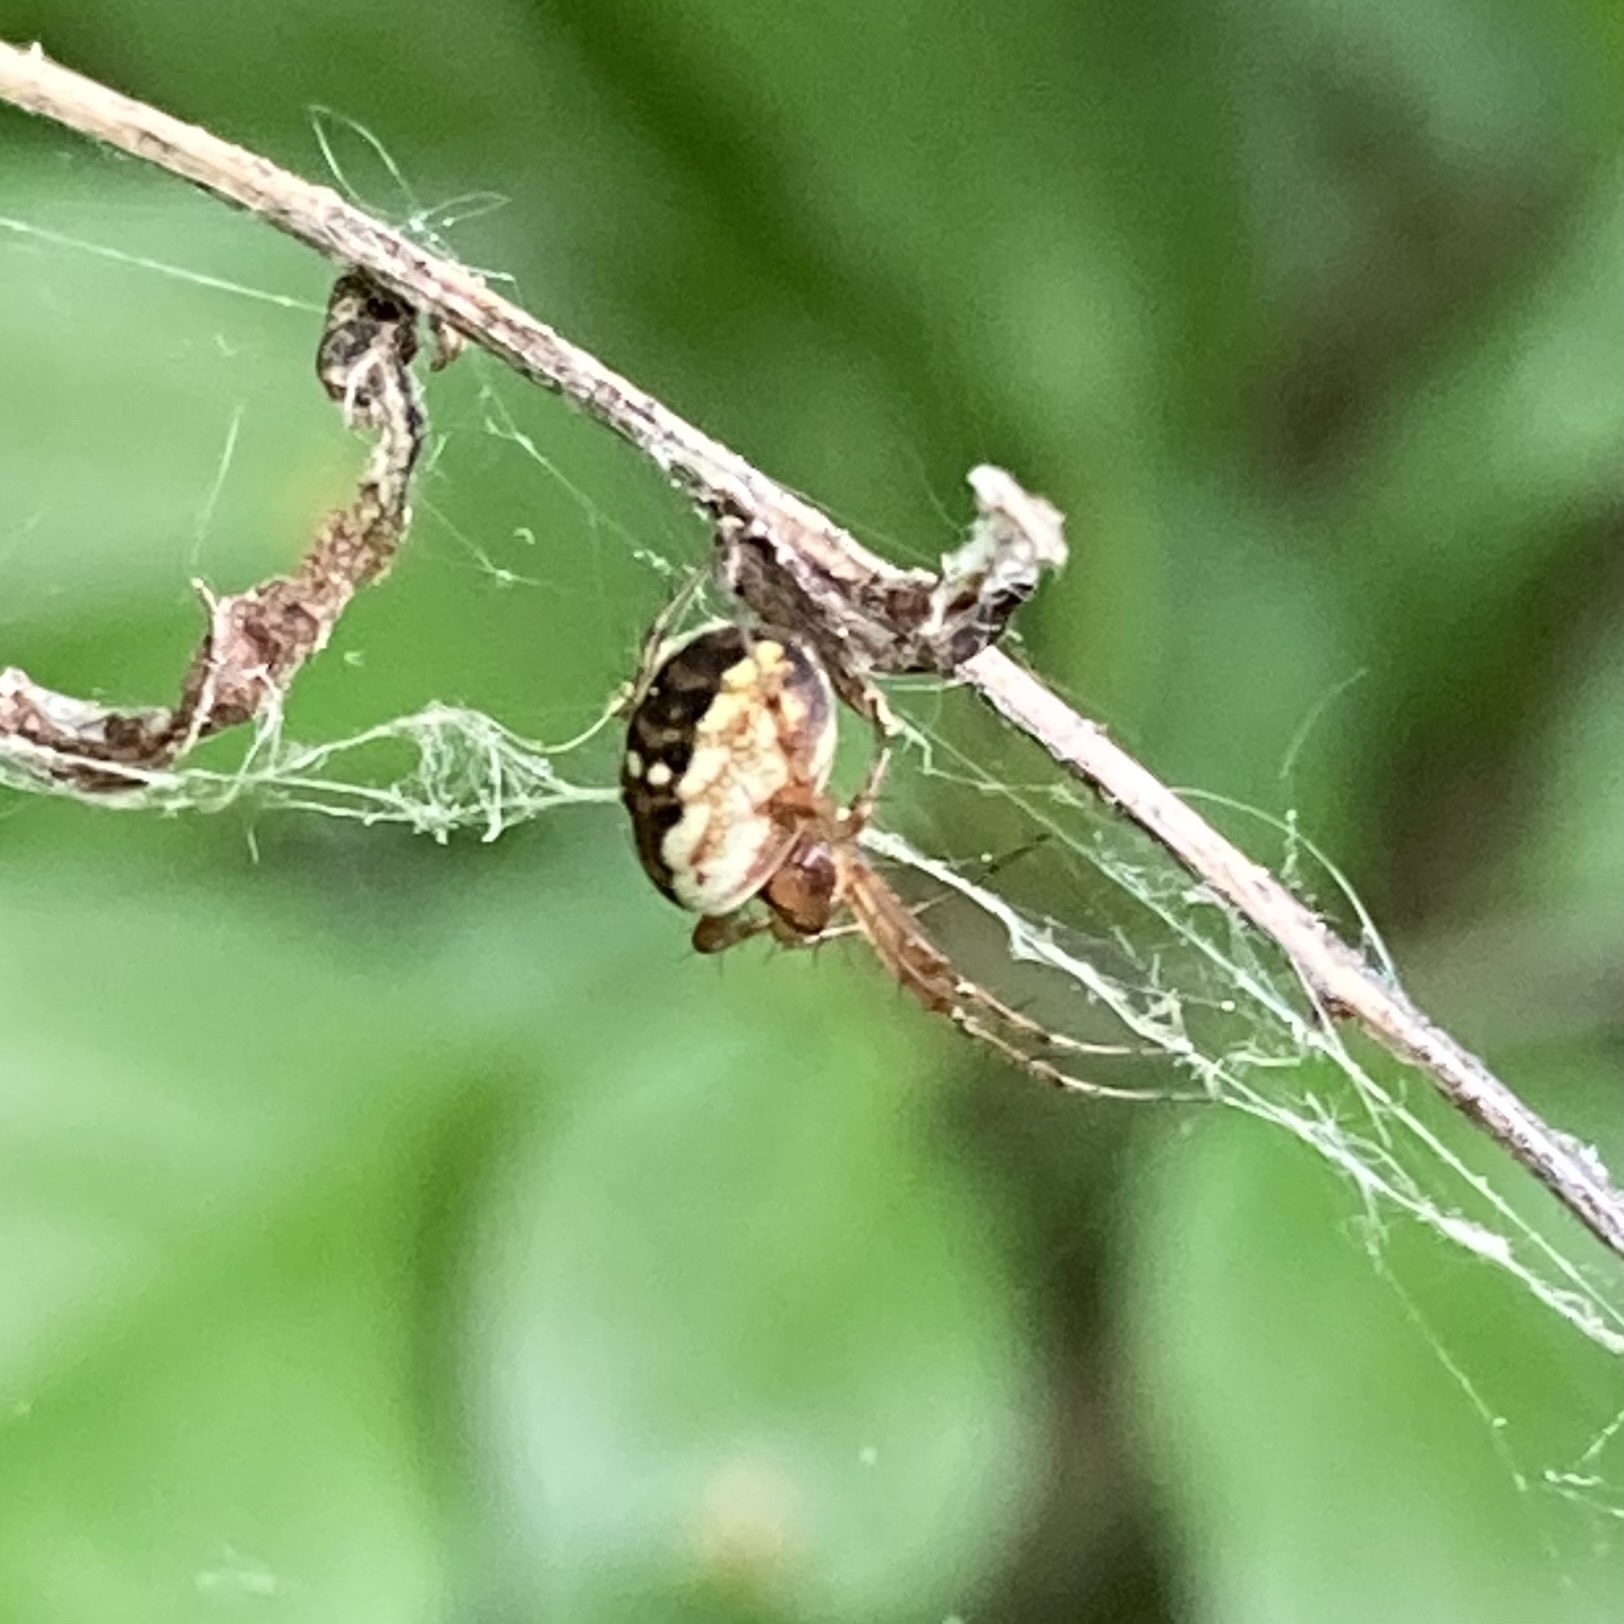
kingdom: Animalia
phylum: Arthropoda
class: Arachnida
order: Araneae
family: Araneidae
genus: Mangora
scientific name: Mangora placida
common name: Tuft-legged orbweaver
